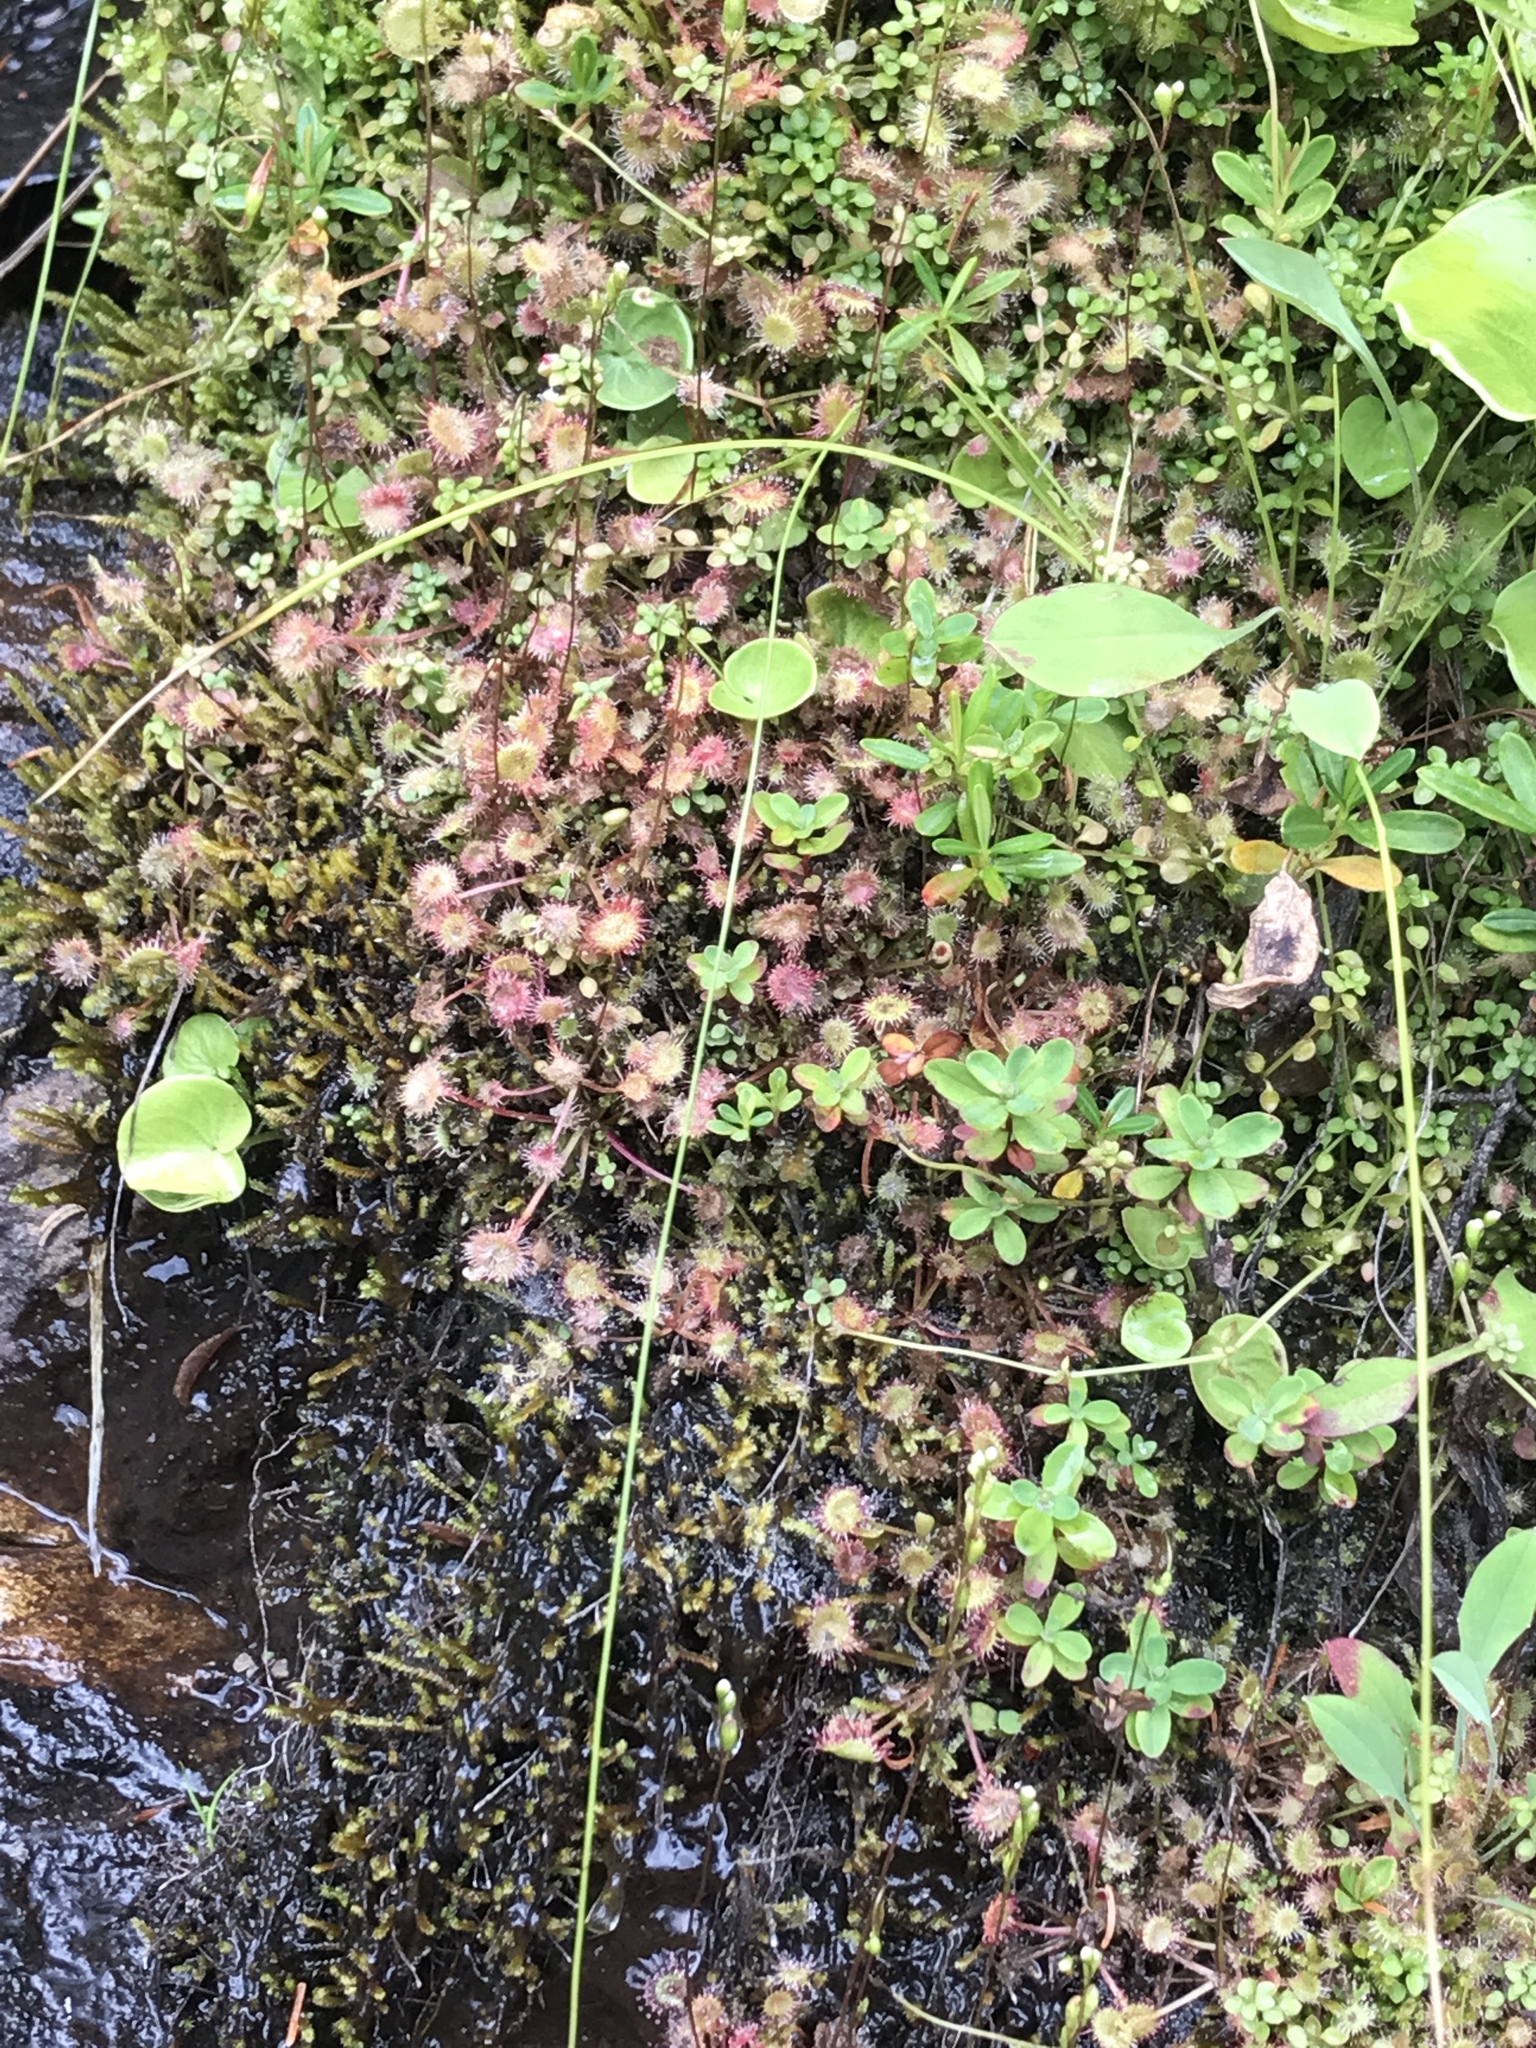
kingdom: Plantae
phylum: Tracheophyta
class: Magnoliopsida
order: Caryophyllales
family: Droseraceae
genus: Drosera
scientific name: Drosera rotundifolia
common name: Round-leaved sundew
